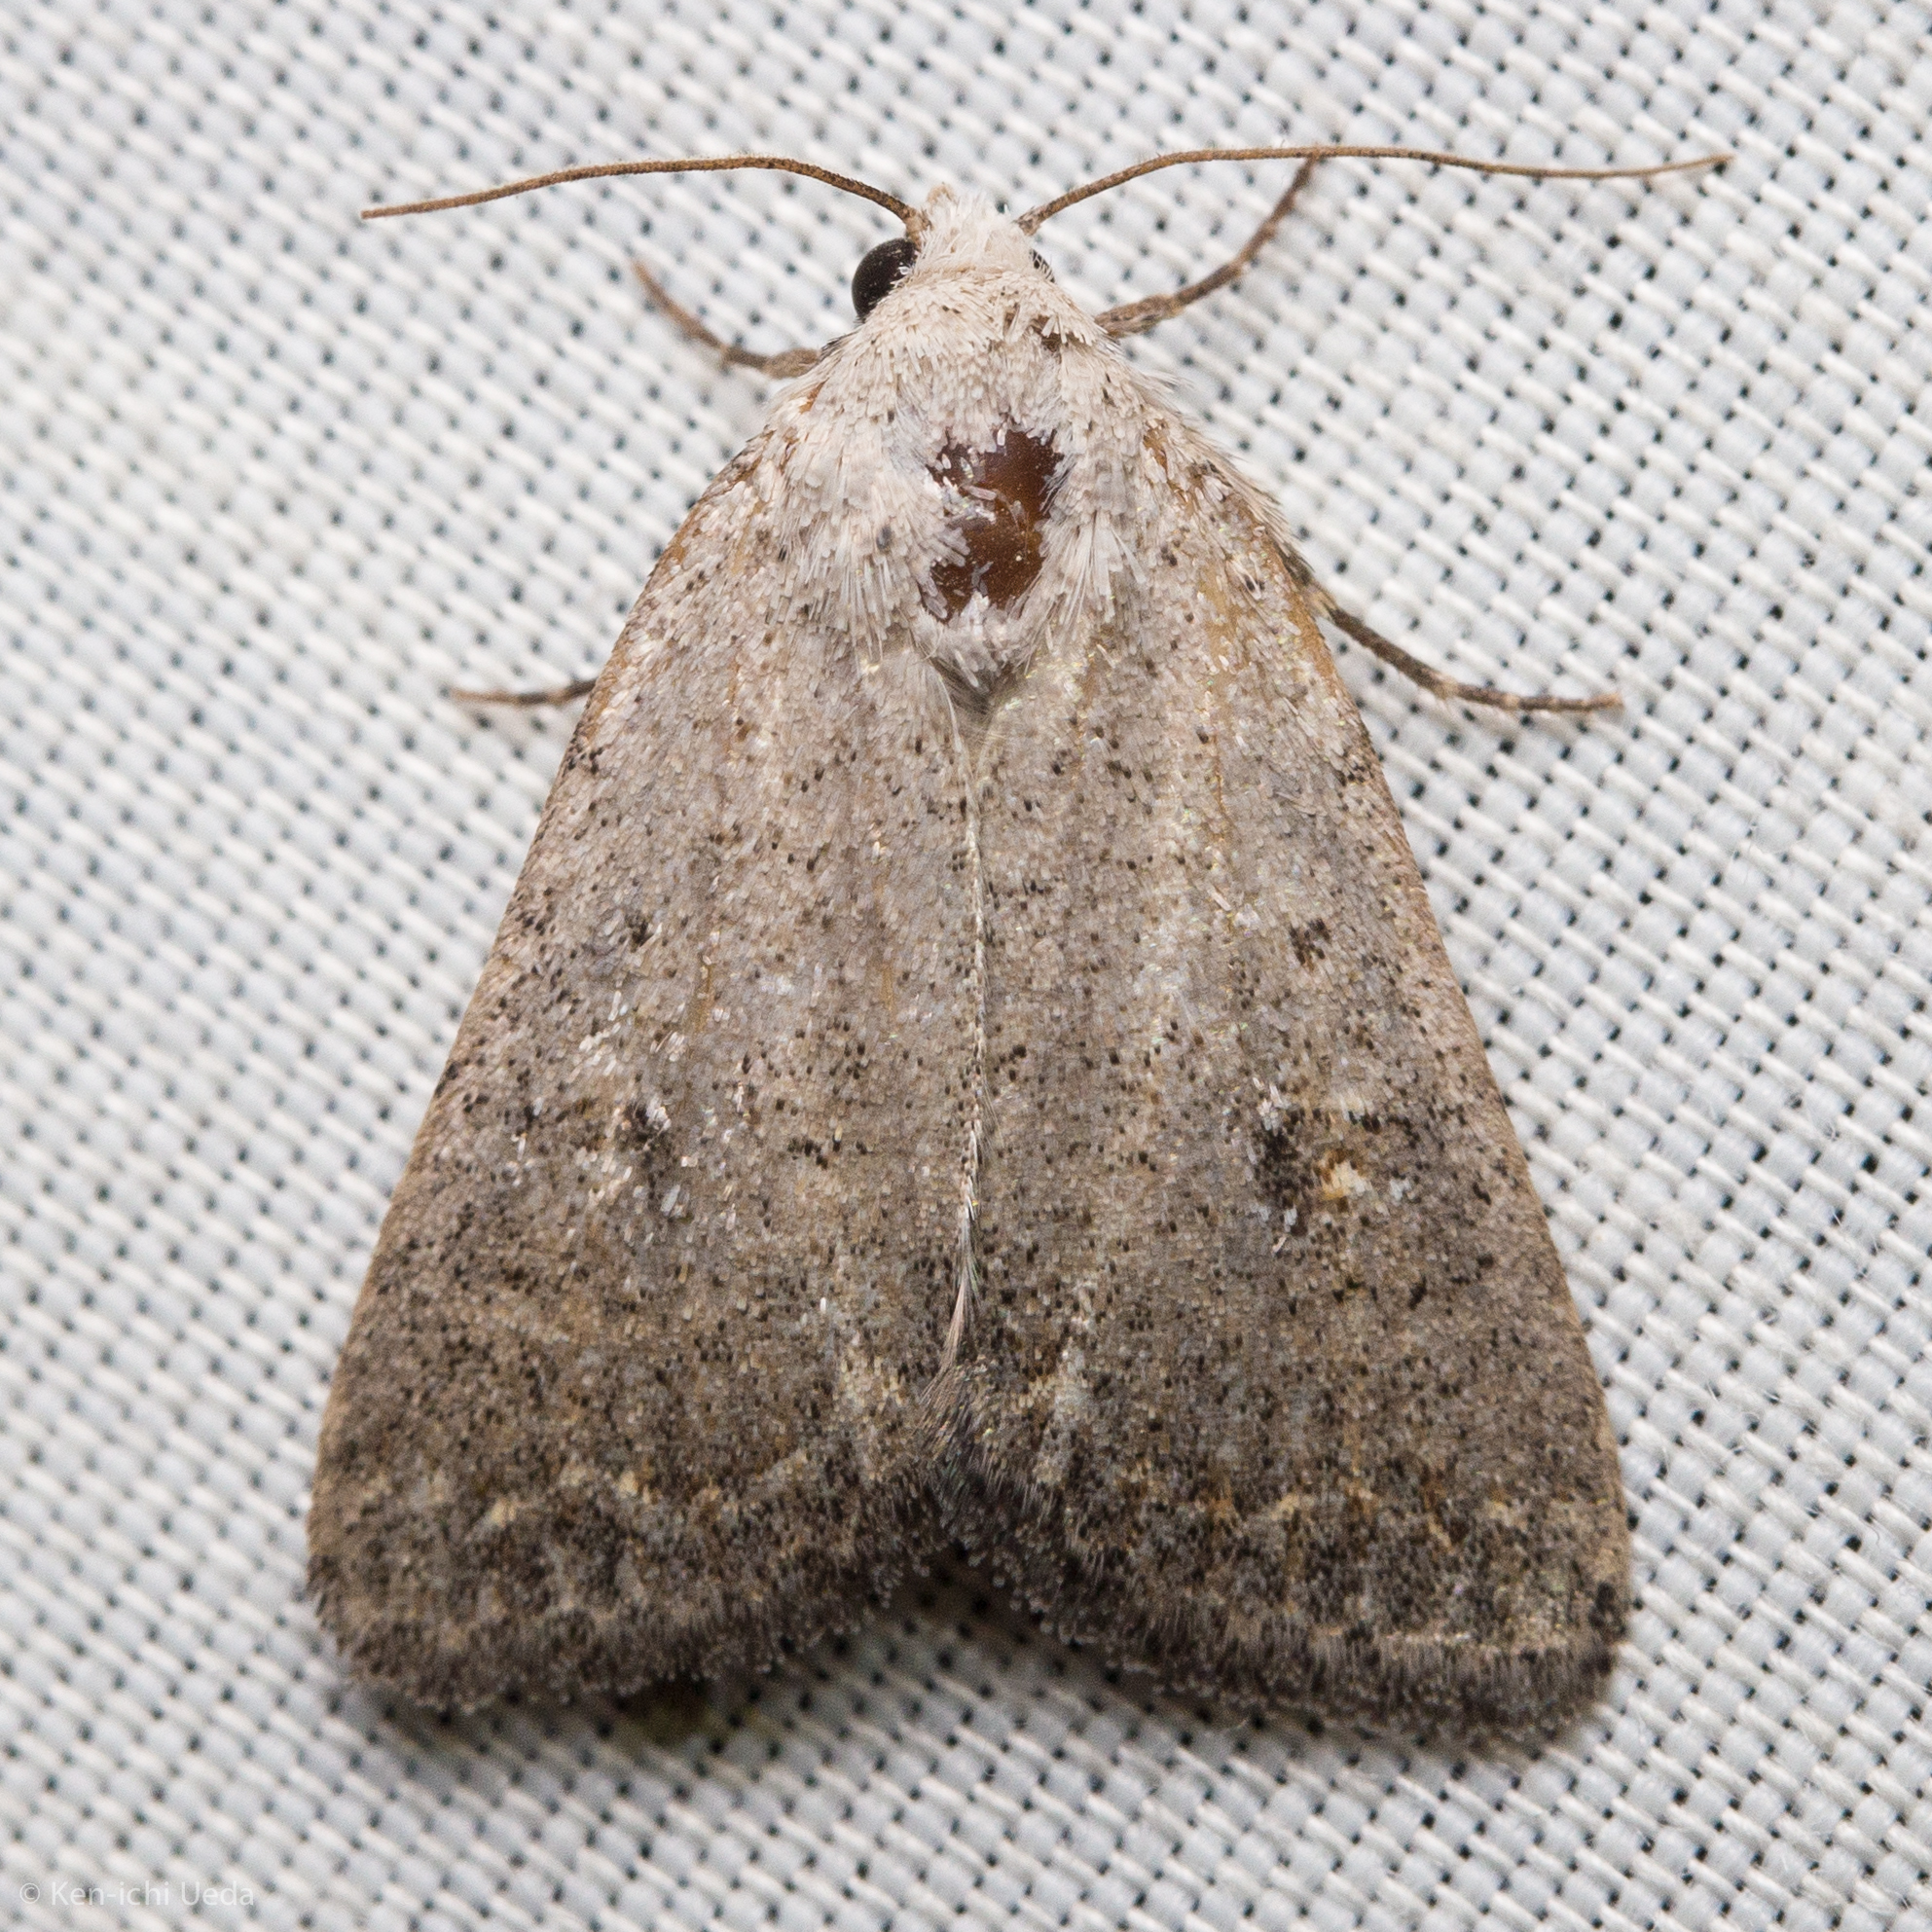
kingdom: Animalia
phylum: Arthropoda
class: Insecta
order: Lepidoptera
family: Noctuidae
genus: Caradrina
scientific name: Caradrina montana
